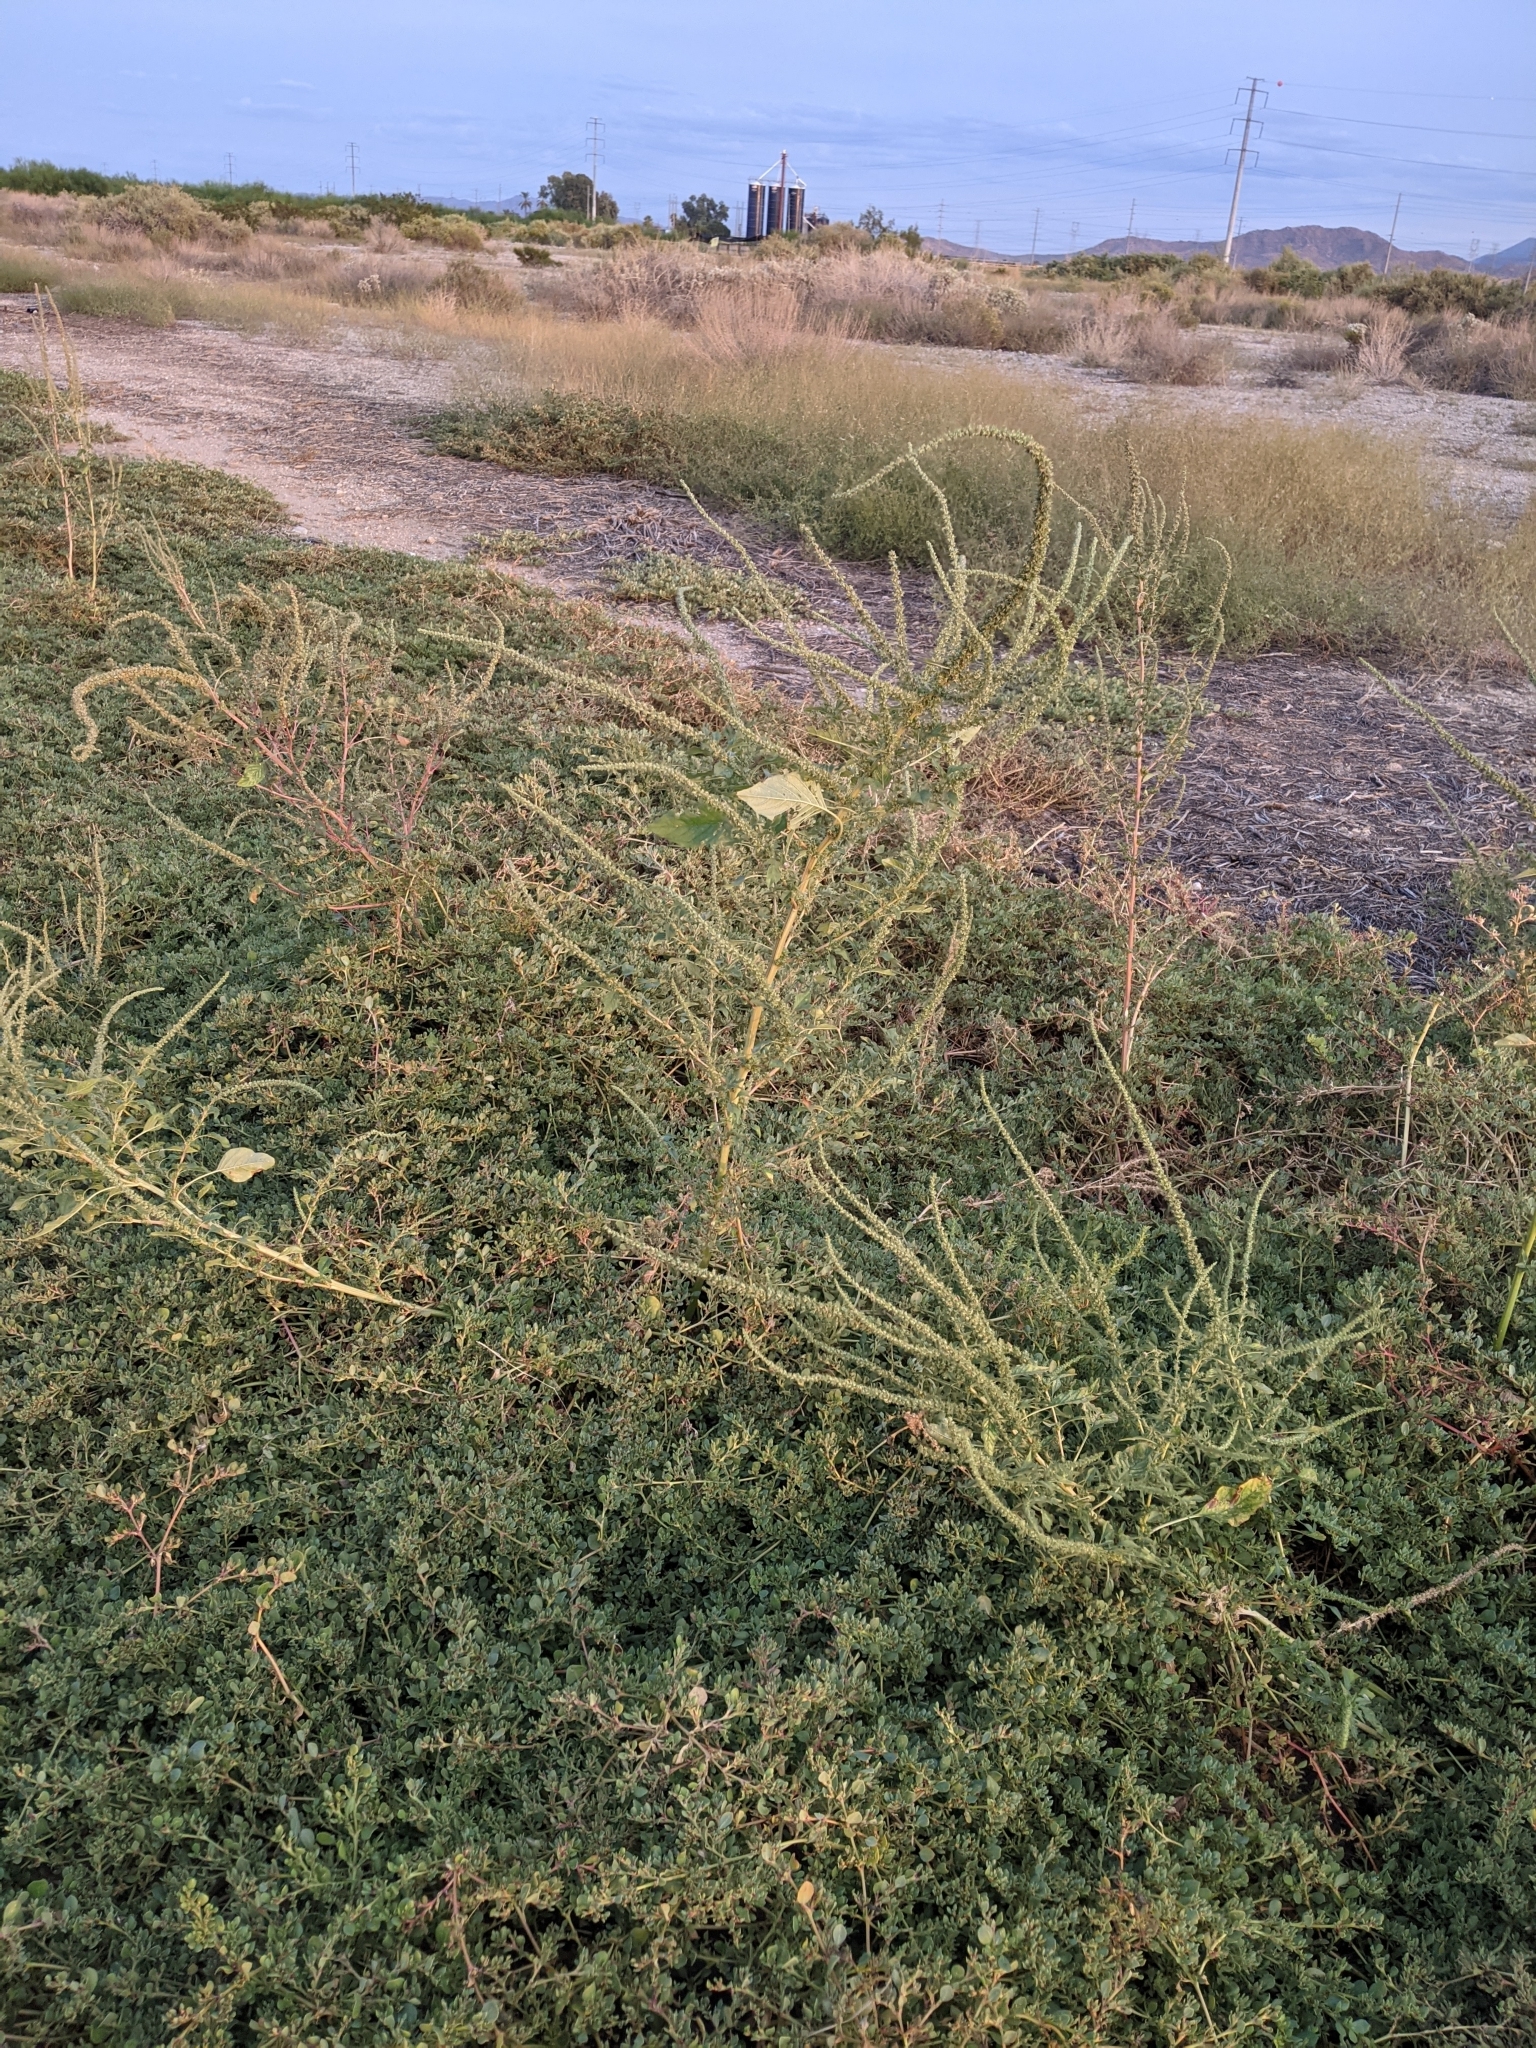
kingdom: Plantae
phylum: Tracheophyta
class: Magnoliopsida
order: Caryophyllales
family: Amaranthaceae
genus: Amaranthus
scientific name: Amaranthus palmeri
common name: Dioecious amaranth
